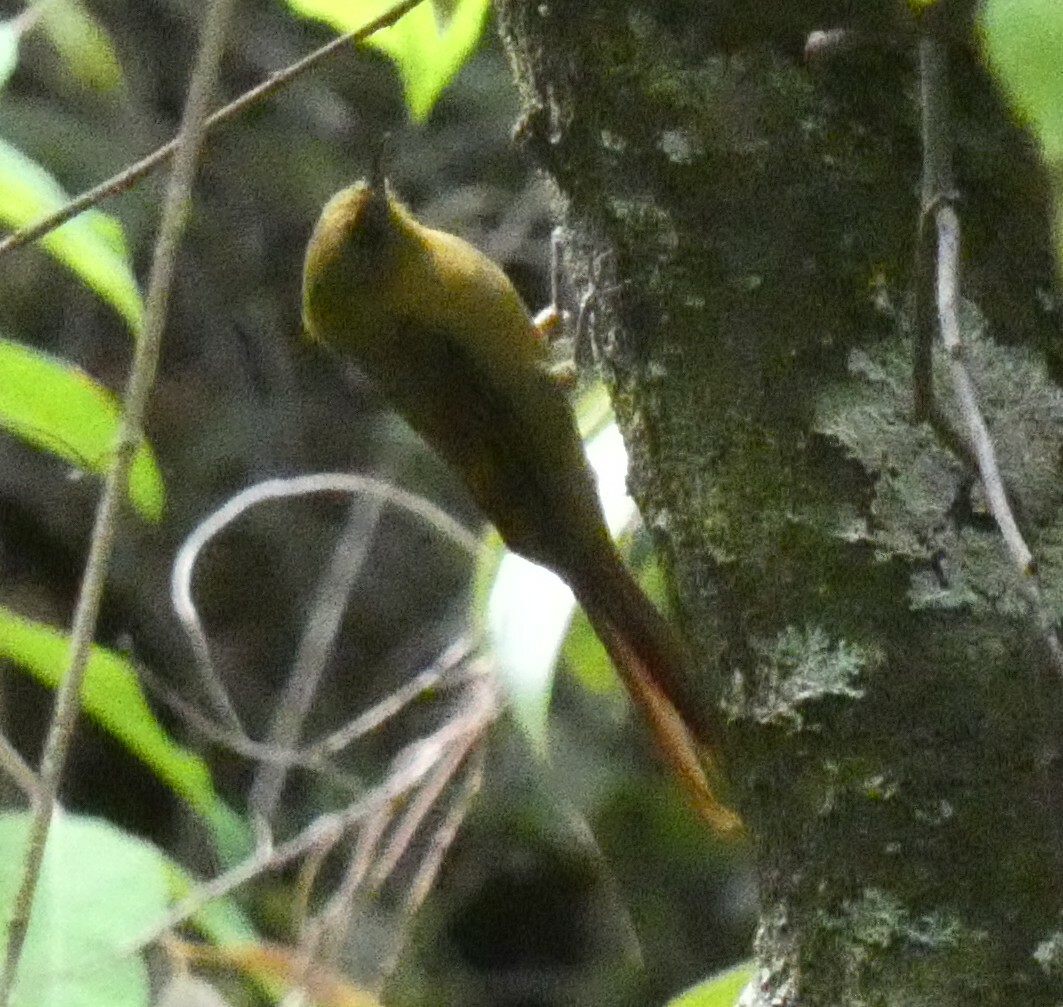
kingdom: Animalia
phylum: Chordata
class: Aves
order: Passeriformes
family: Furnariidae
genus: Sittasomus
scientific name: Sittasomus griseicapillus
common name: Olivaceous woodcreeper
